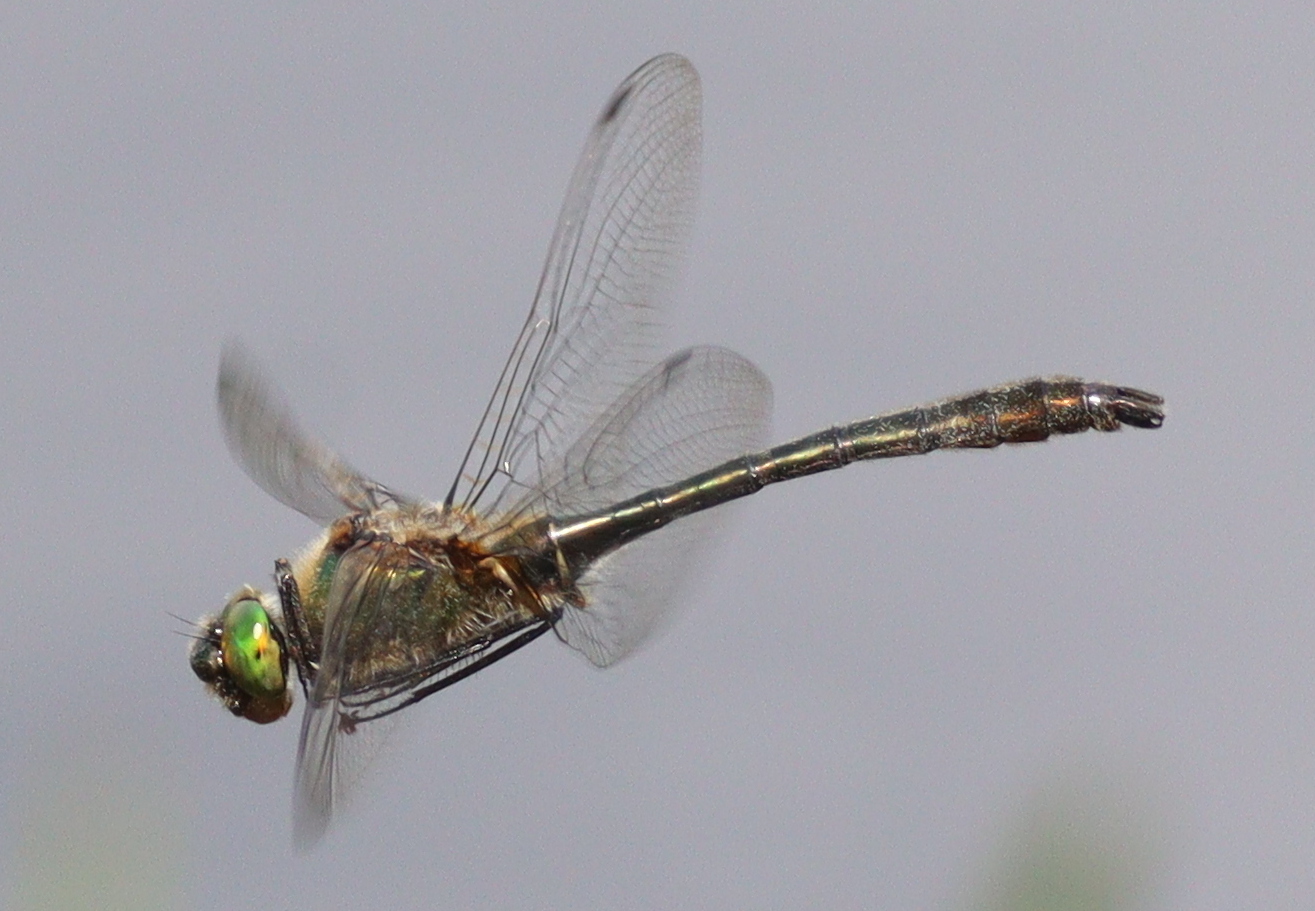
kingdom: Animalia
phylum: Arthropoda
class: Insecta
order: Odonata
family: Corduliidae
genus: Cordulia
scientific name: Cordulia aenea
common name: Downy emerald
